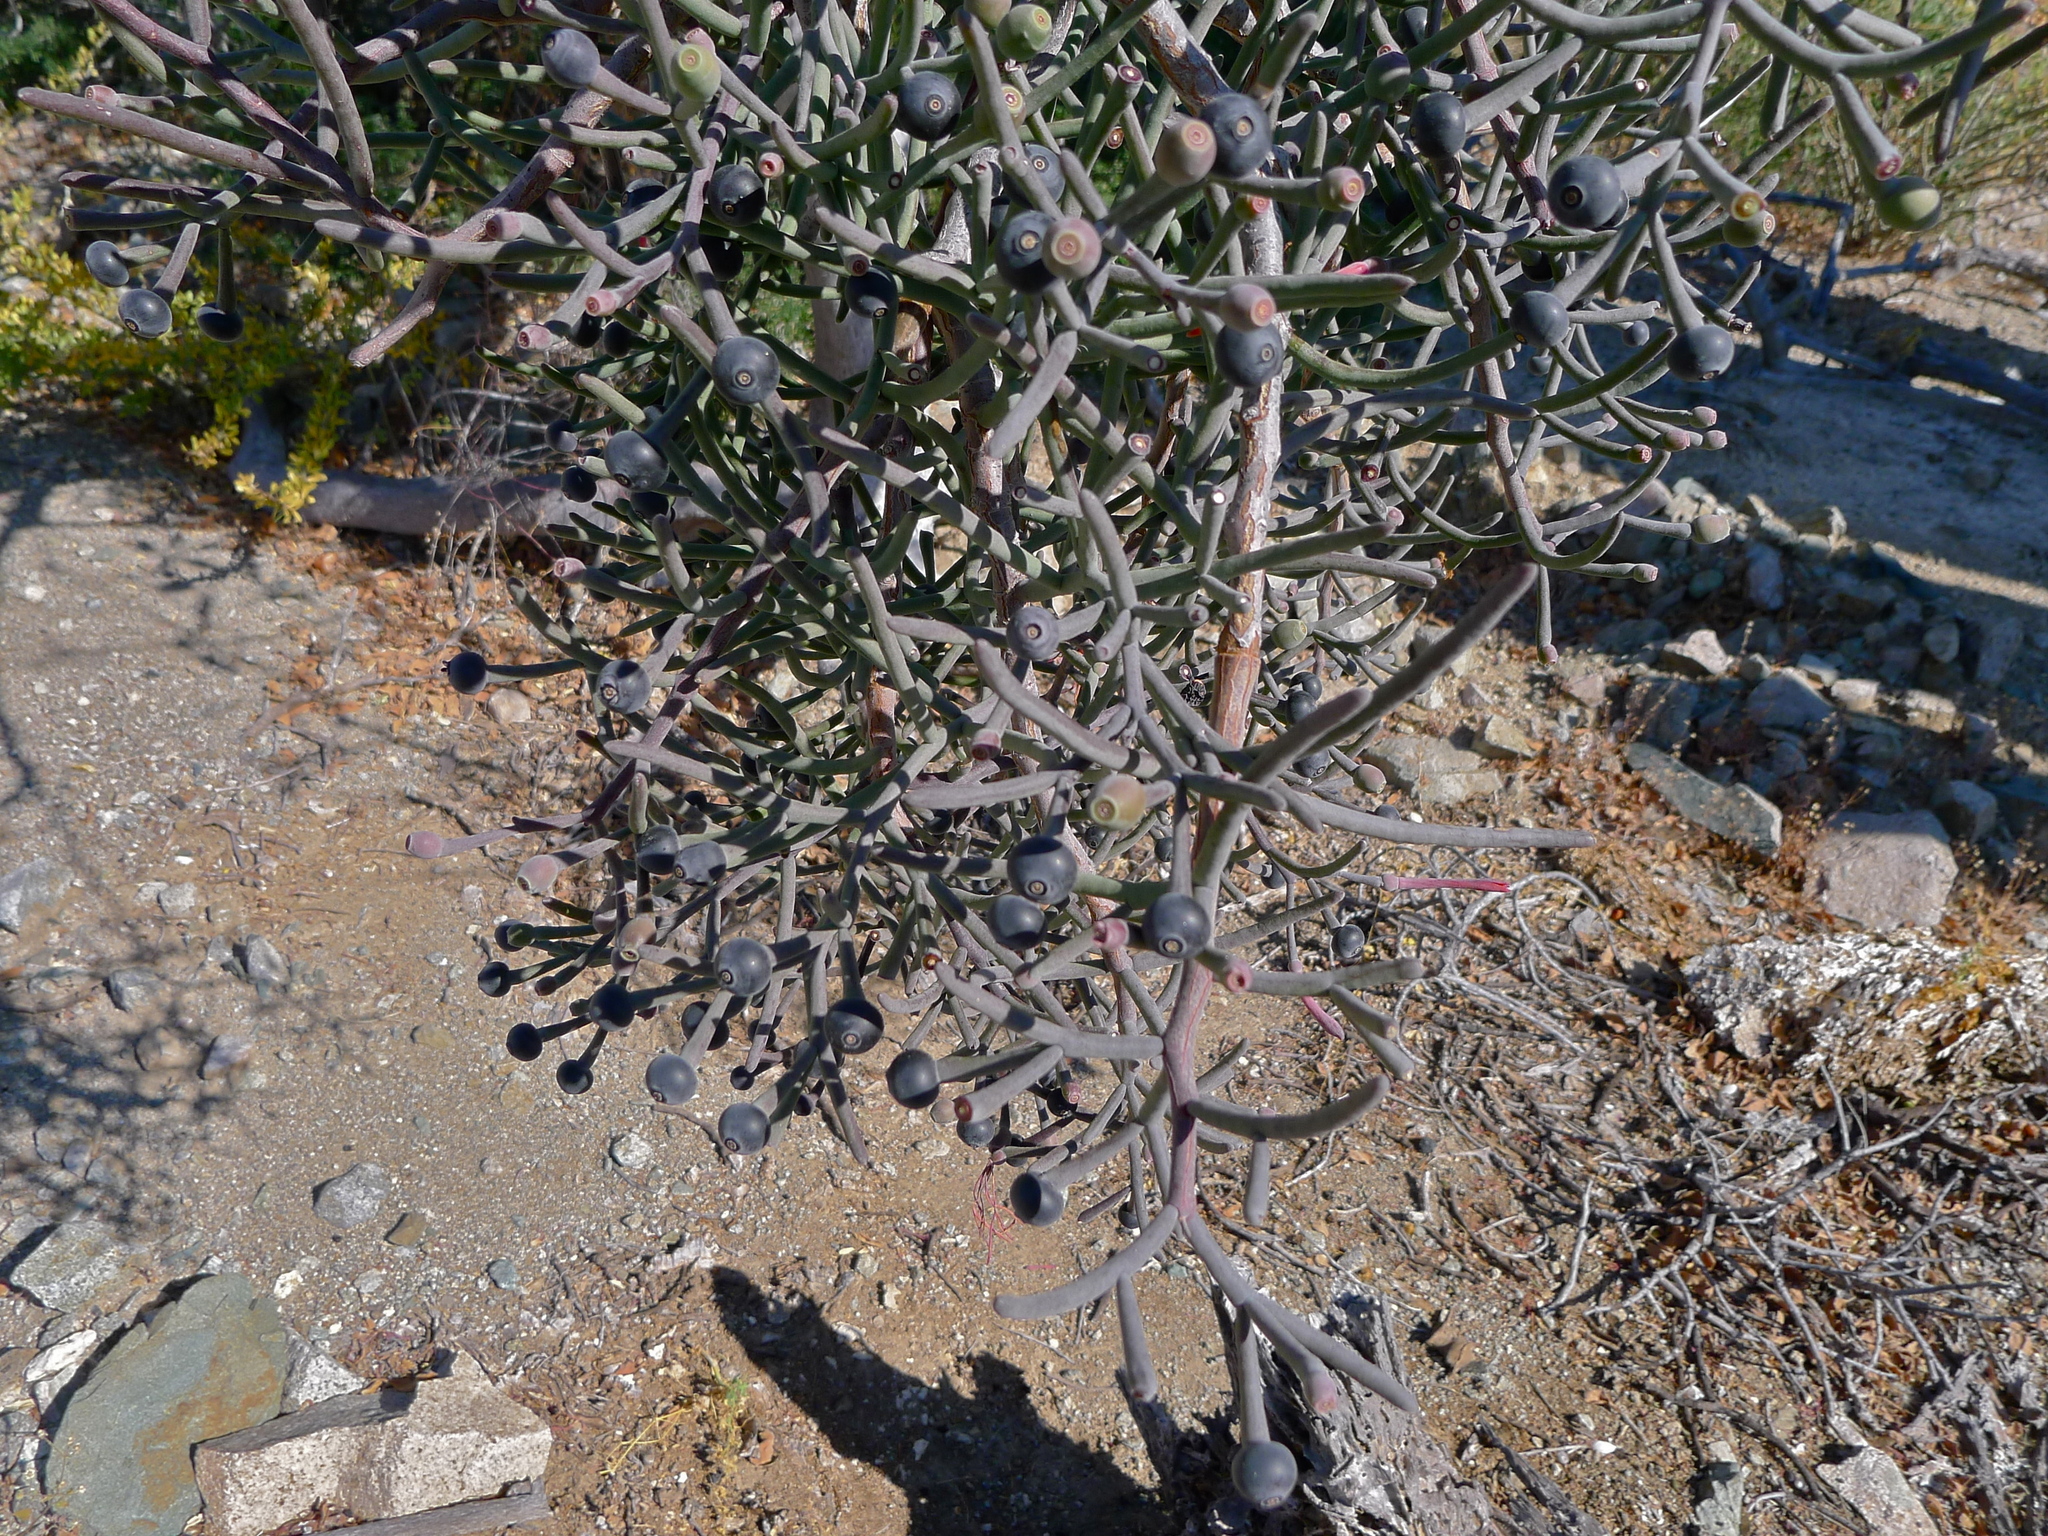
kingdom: Plantae
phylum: Tracheophyta
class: Magnoliopsida
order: Santalales
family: Loranthaceae
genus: Psittacanthus
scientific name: Psittacanthus sonorae
